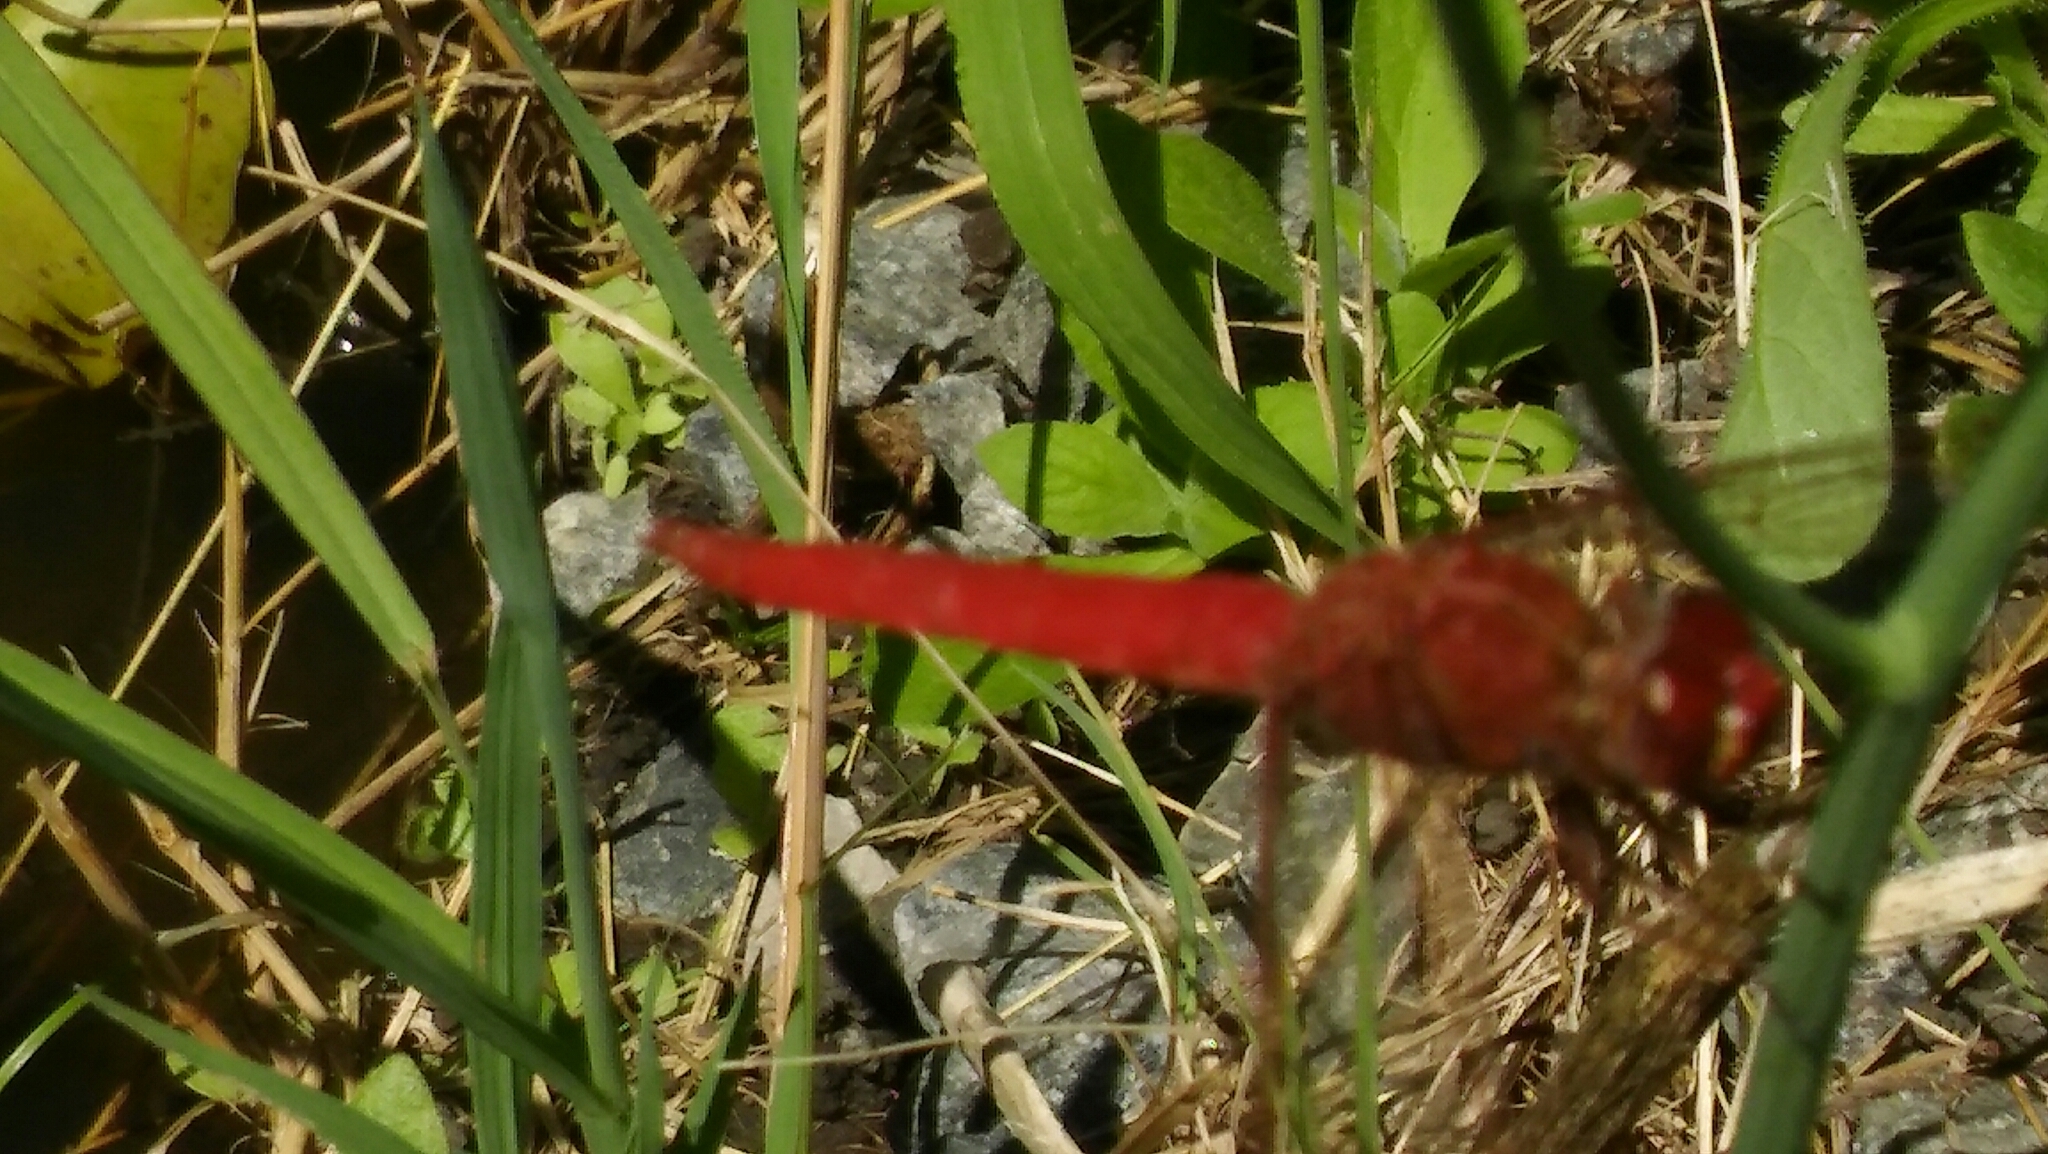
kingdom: Animalia
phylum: Arthropoda
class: Insecta
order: Odonata
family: Libellulidae
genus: Orthemis
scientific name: Orthemis nodiplaga
